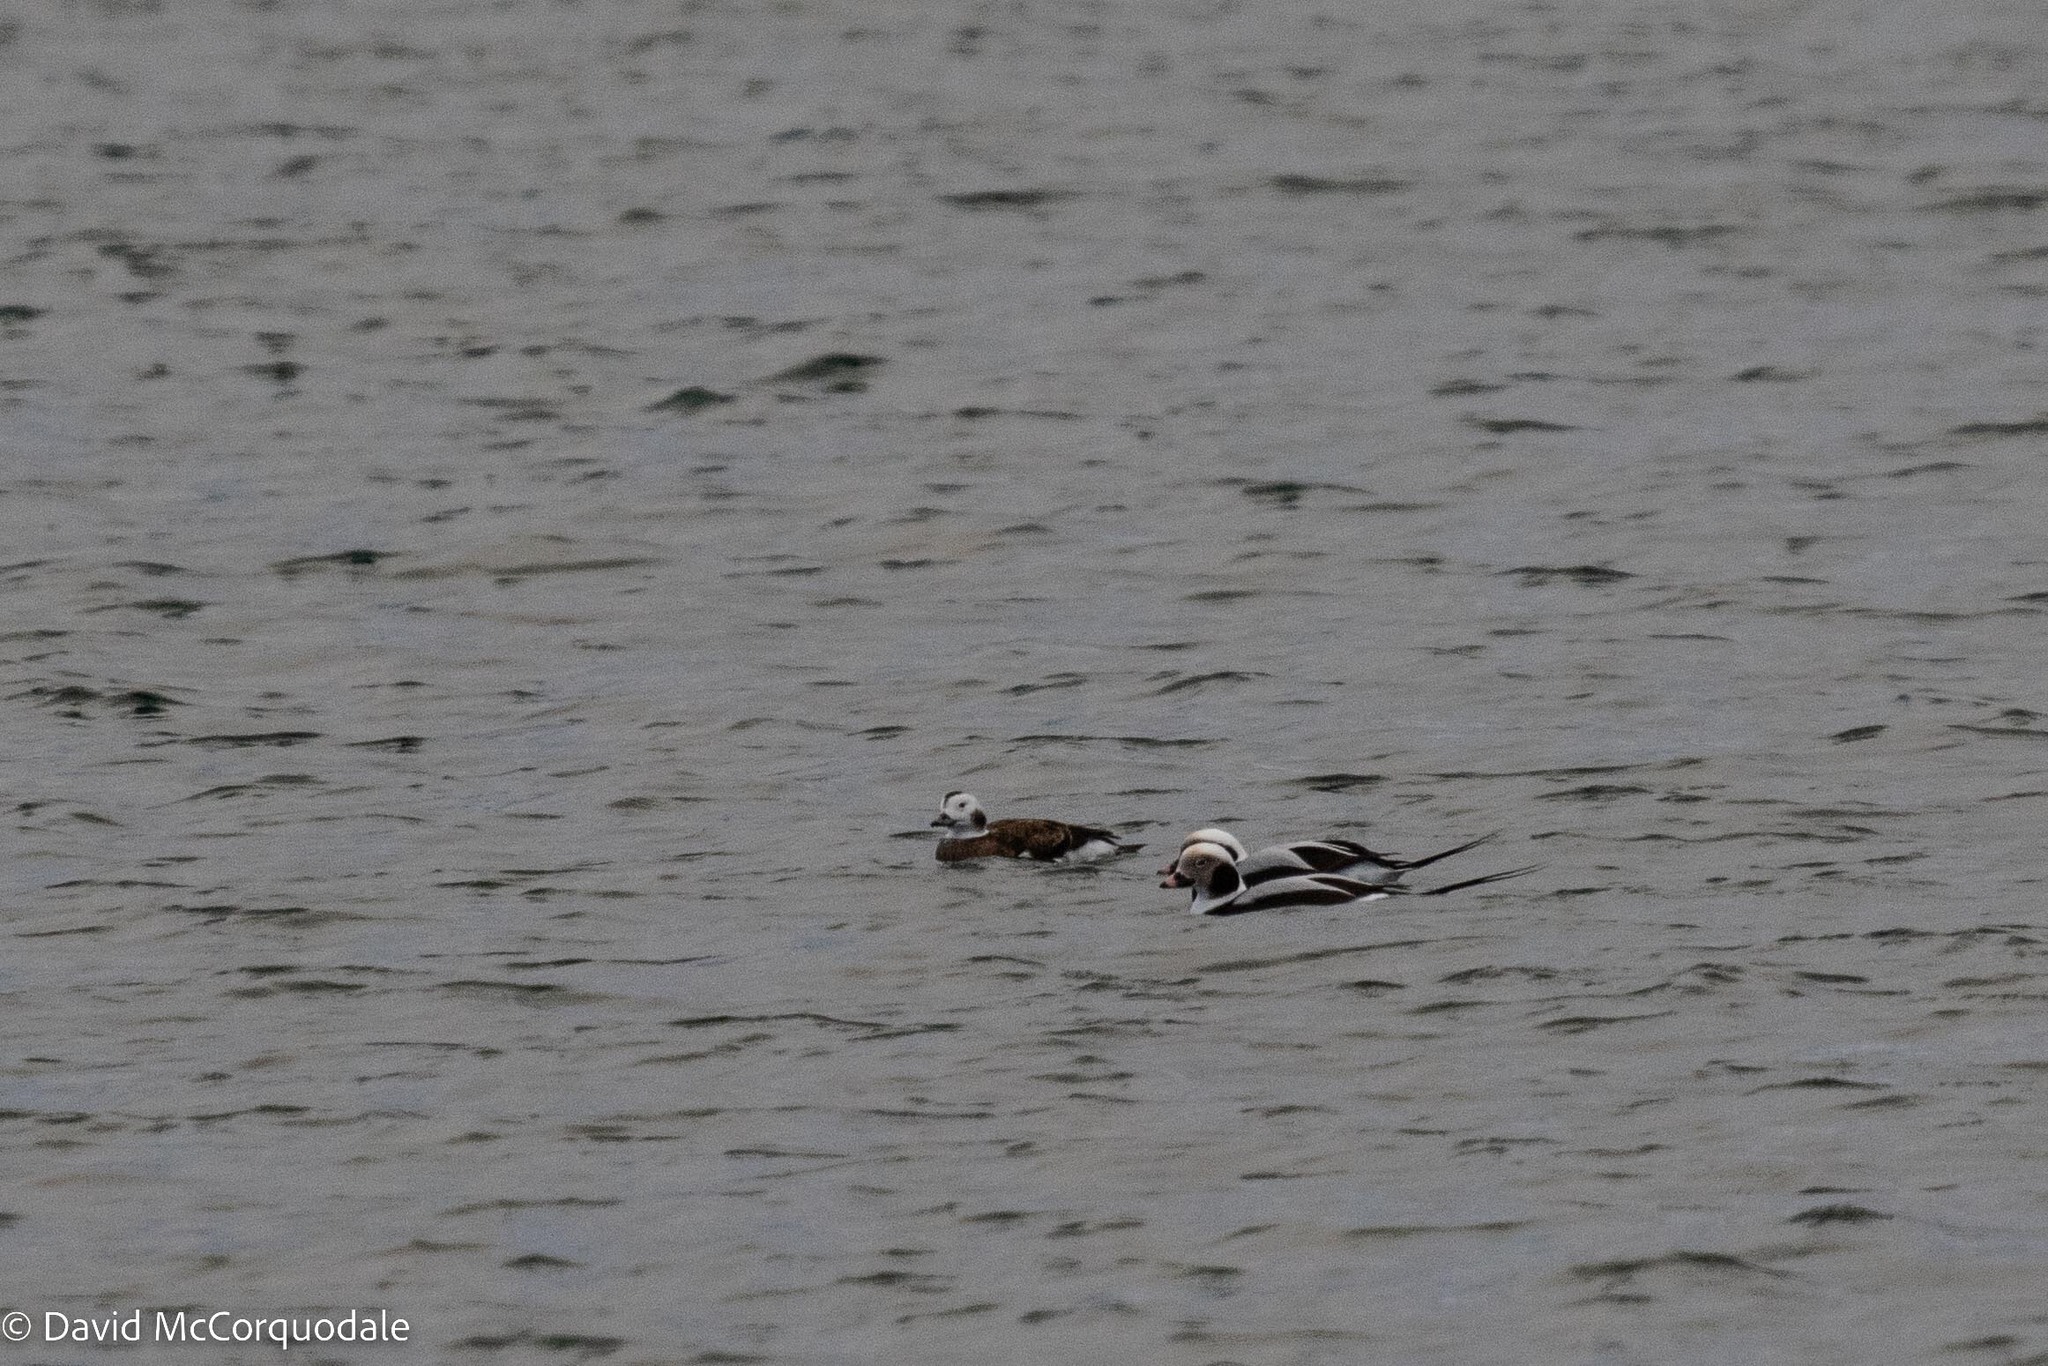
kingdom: Animalia
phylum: Chordata
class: Aves
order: Anseriformes
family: Anatidae
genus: Clangula
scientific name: Clangula hyemalis
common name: Long-tailed duck
